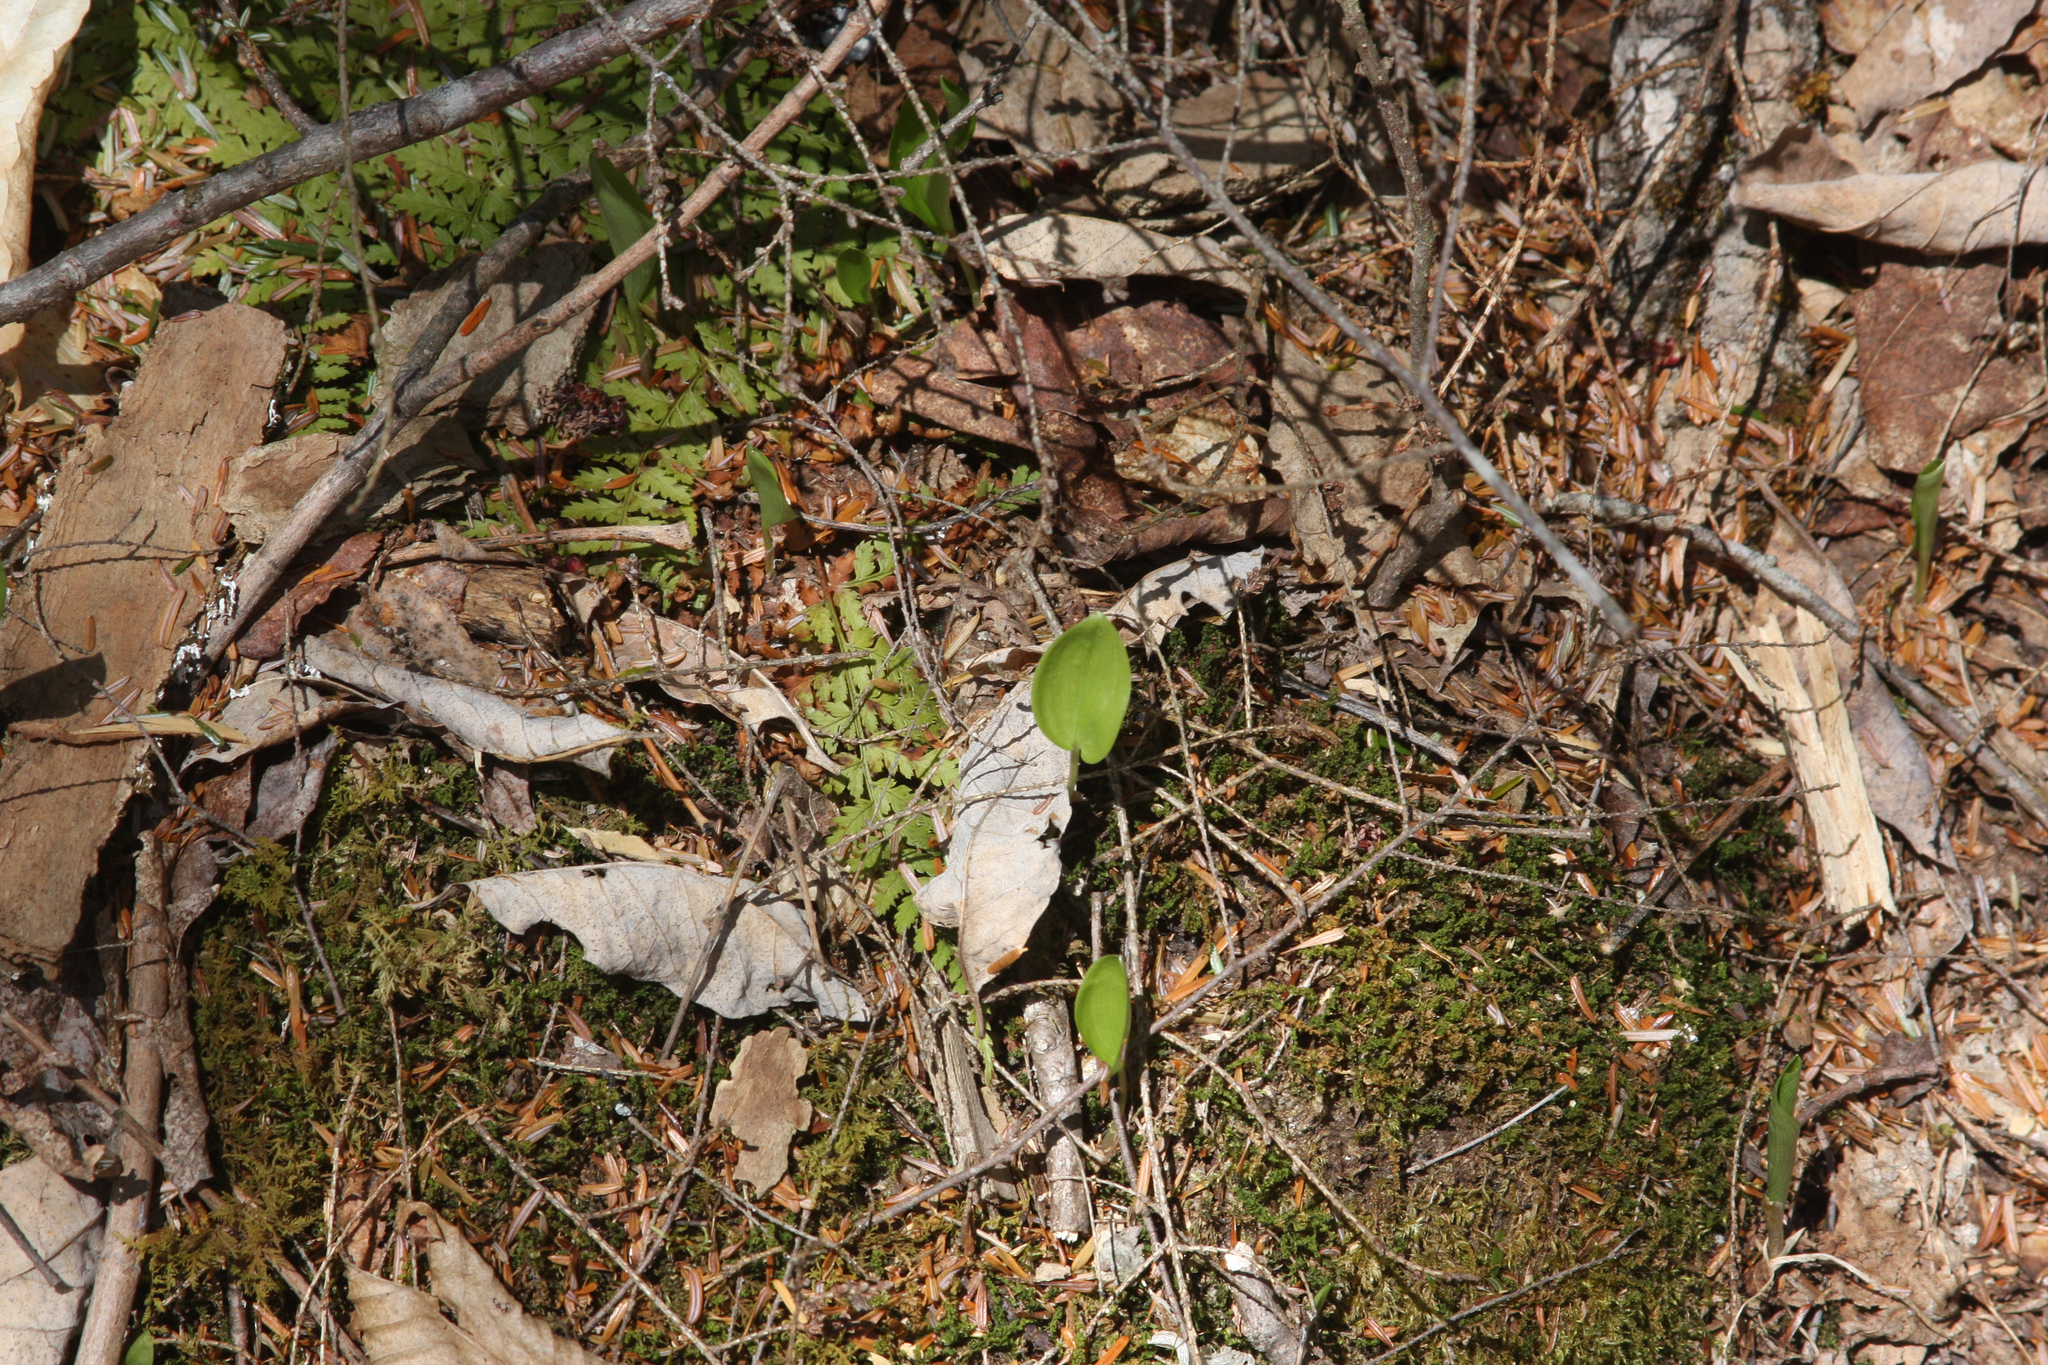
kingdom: Plantae
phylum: Tracheophyta
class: Liliopsida
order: Asparagales
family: Asparagaceae
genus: Maianthemum
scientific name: Maianthemum canadense
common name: False lily-of-the-valley
